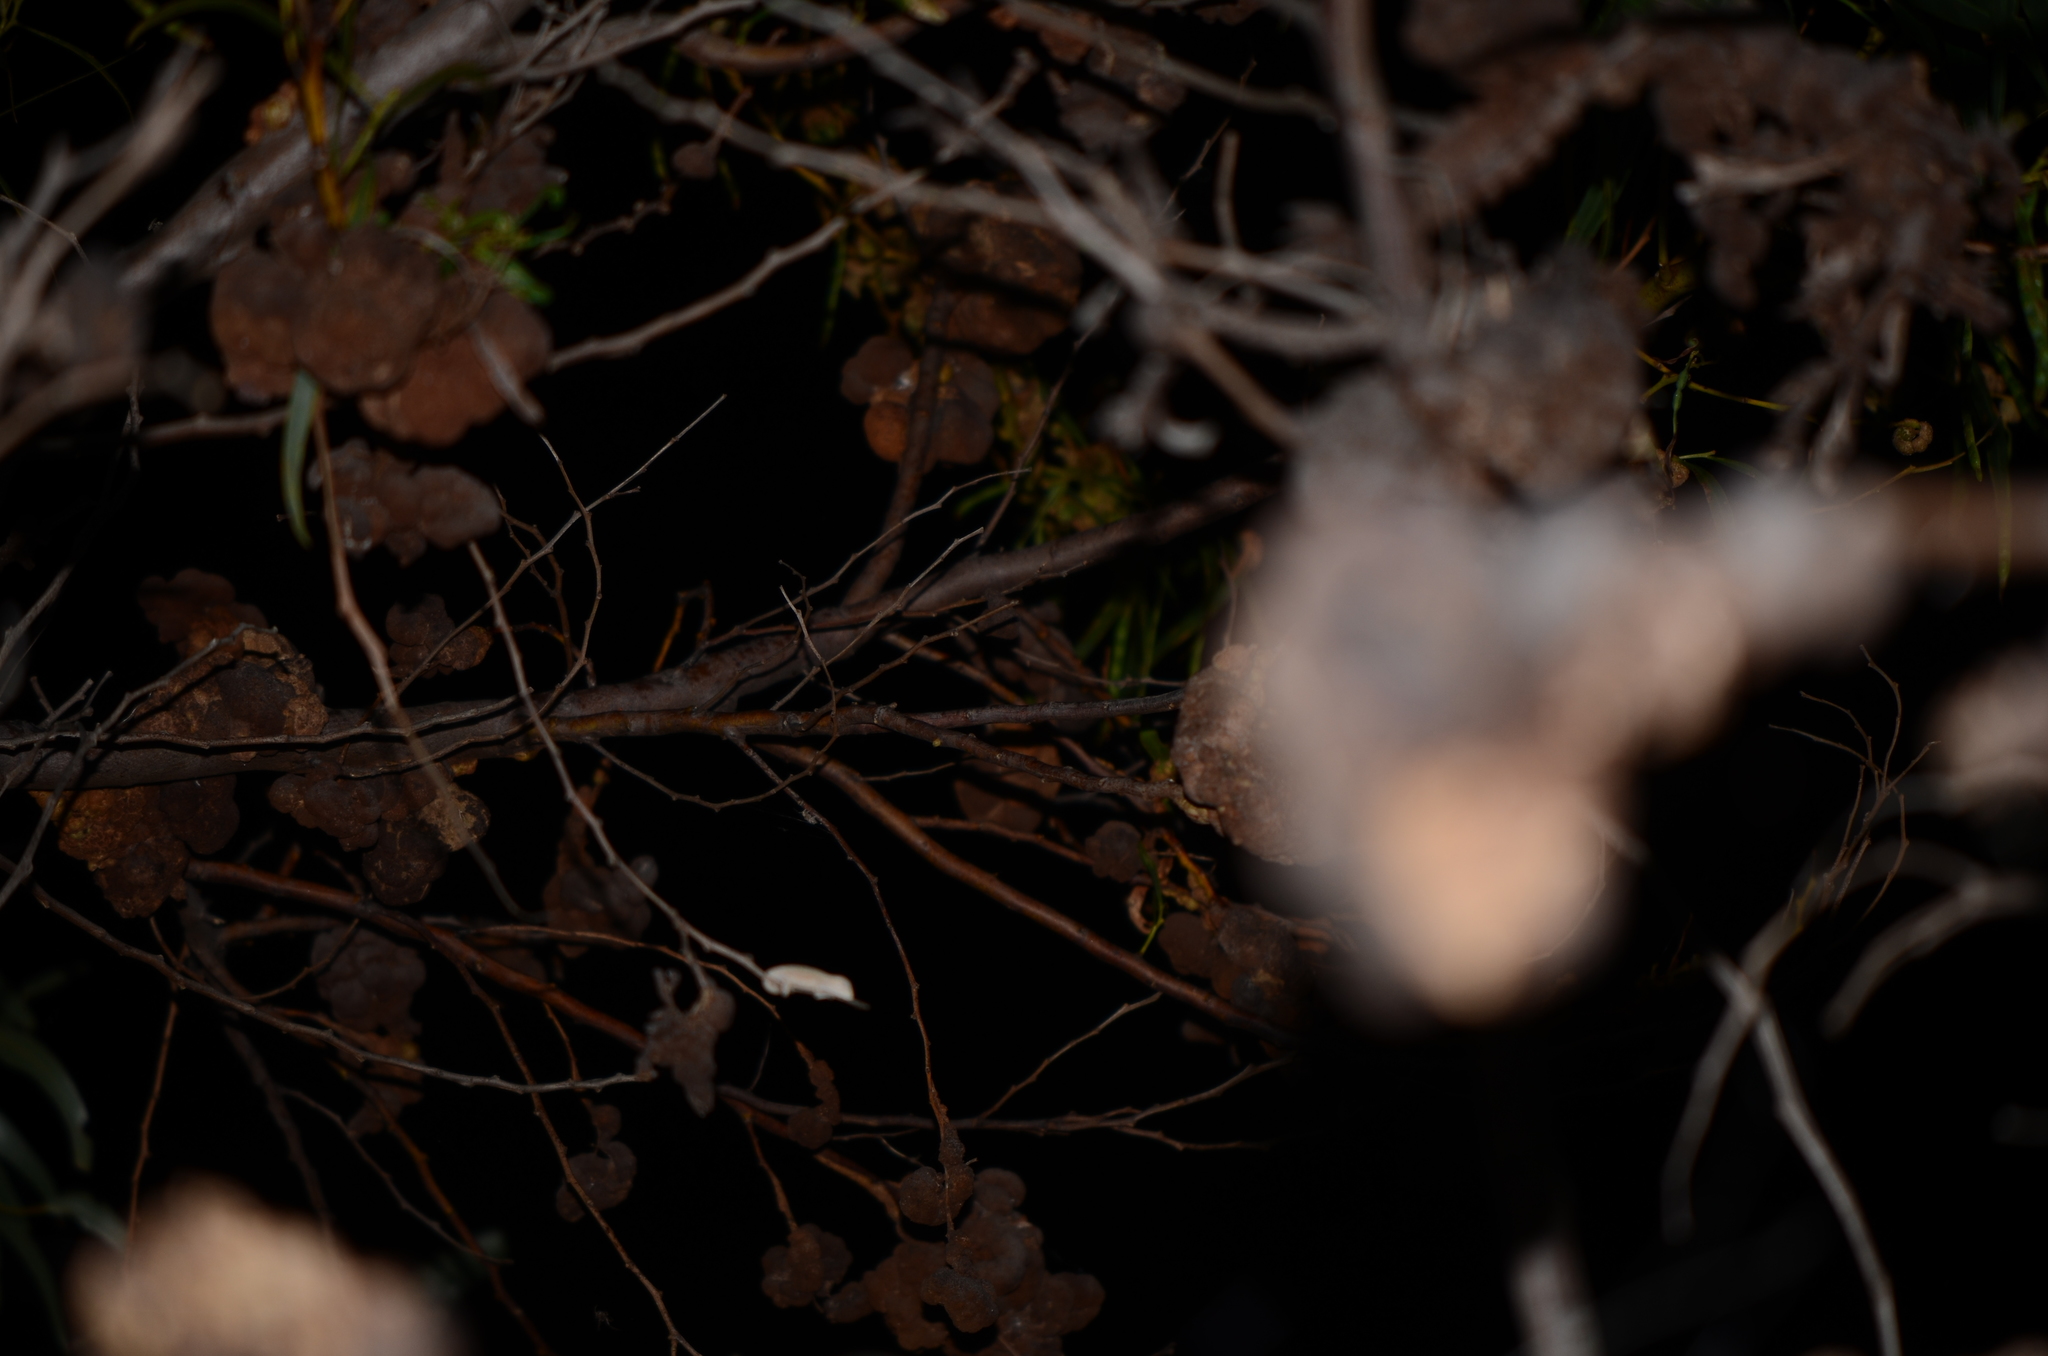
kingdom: Animalia
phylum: Chordata
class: Squamata
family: Chamaeleonidae
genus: Bradypodion
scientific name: Bradypodion pumilum
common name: Cape dwarf chameleon
